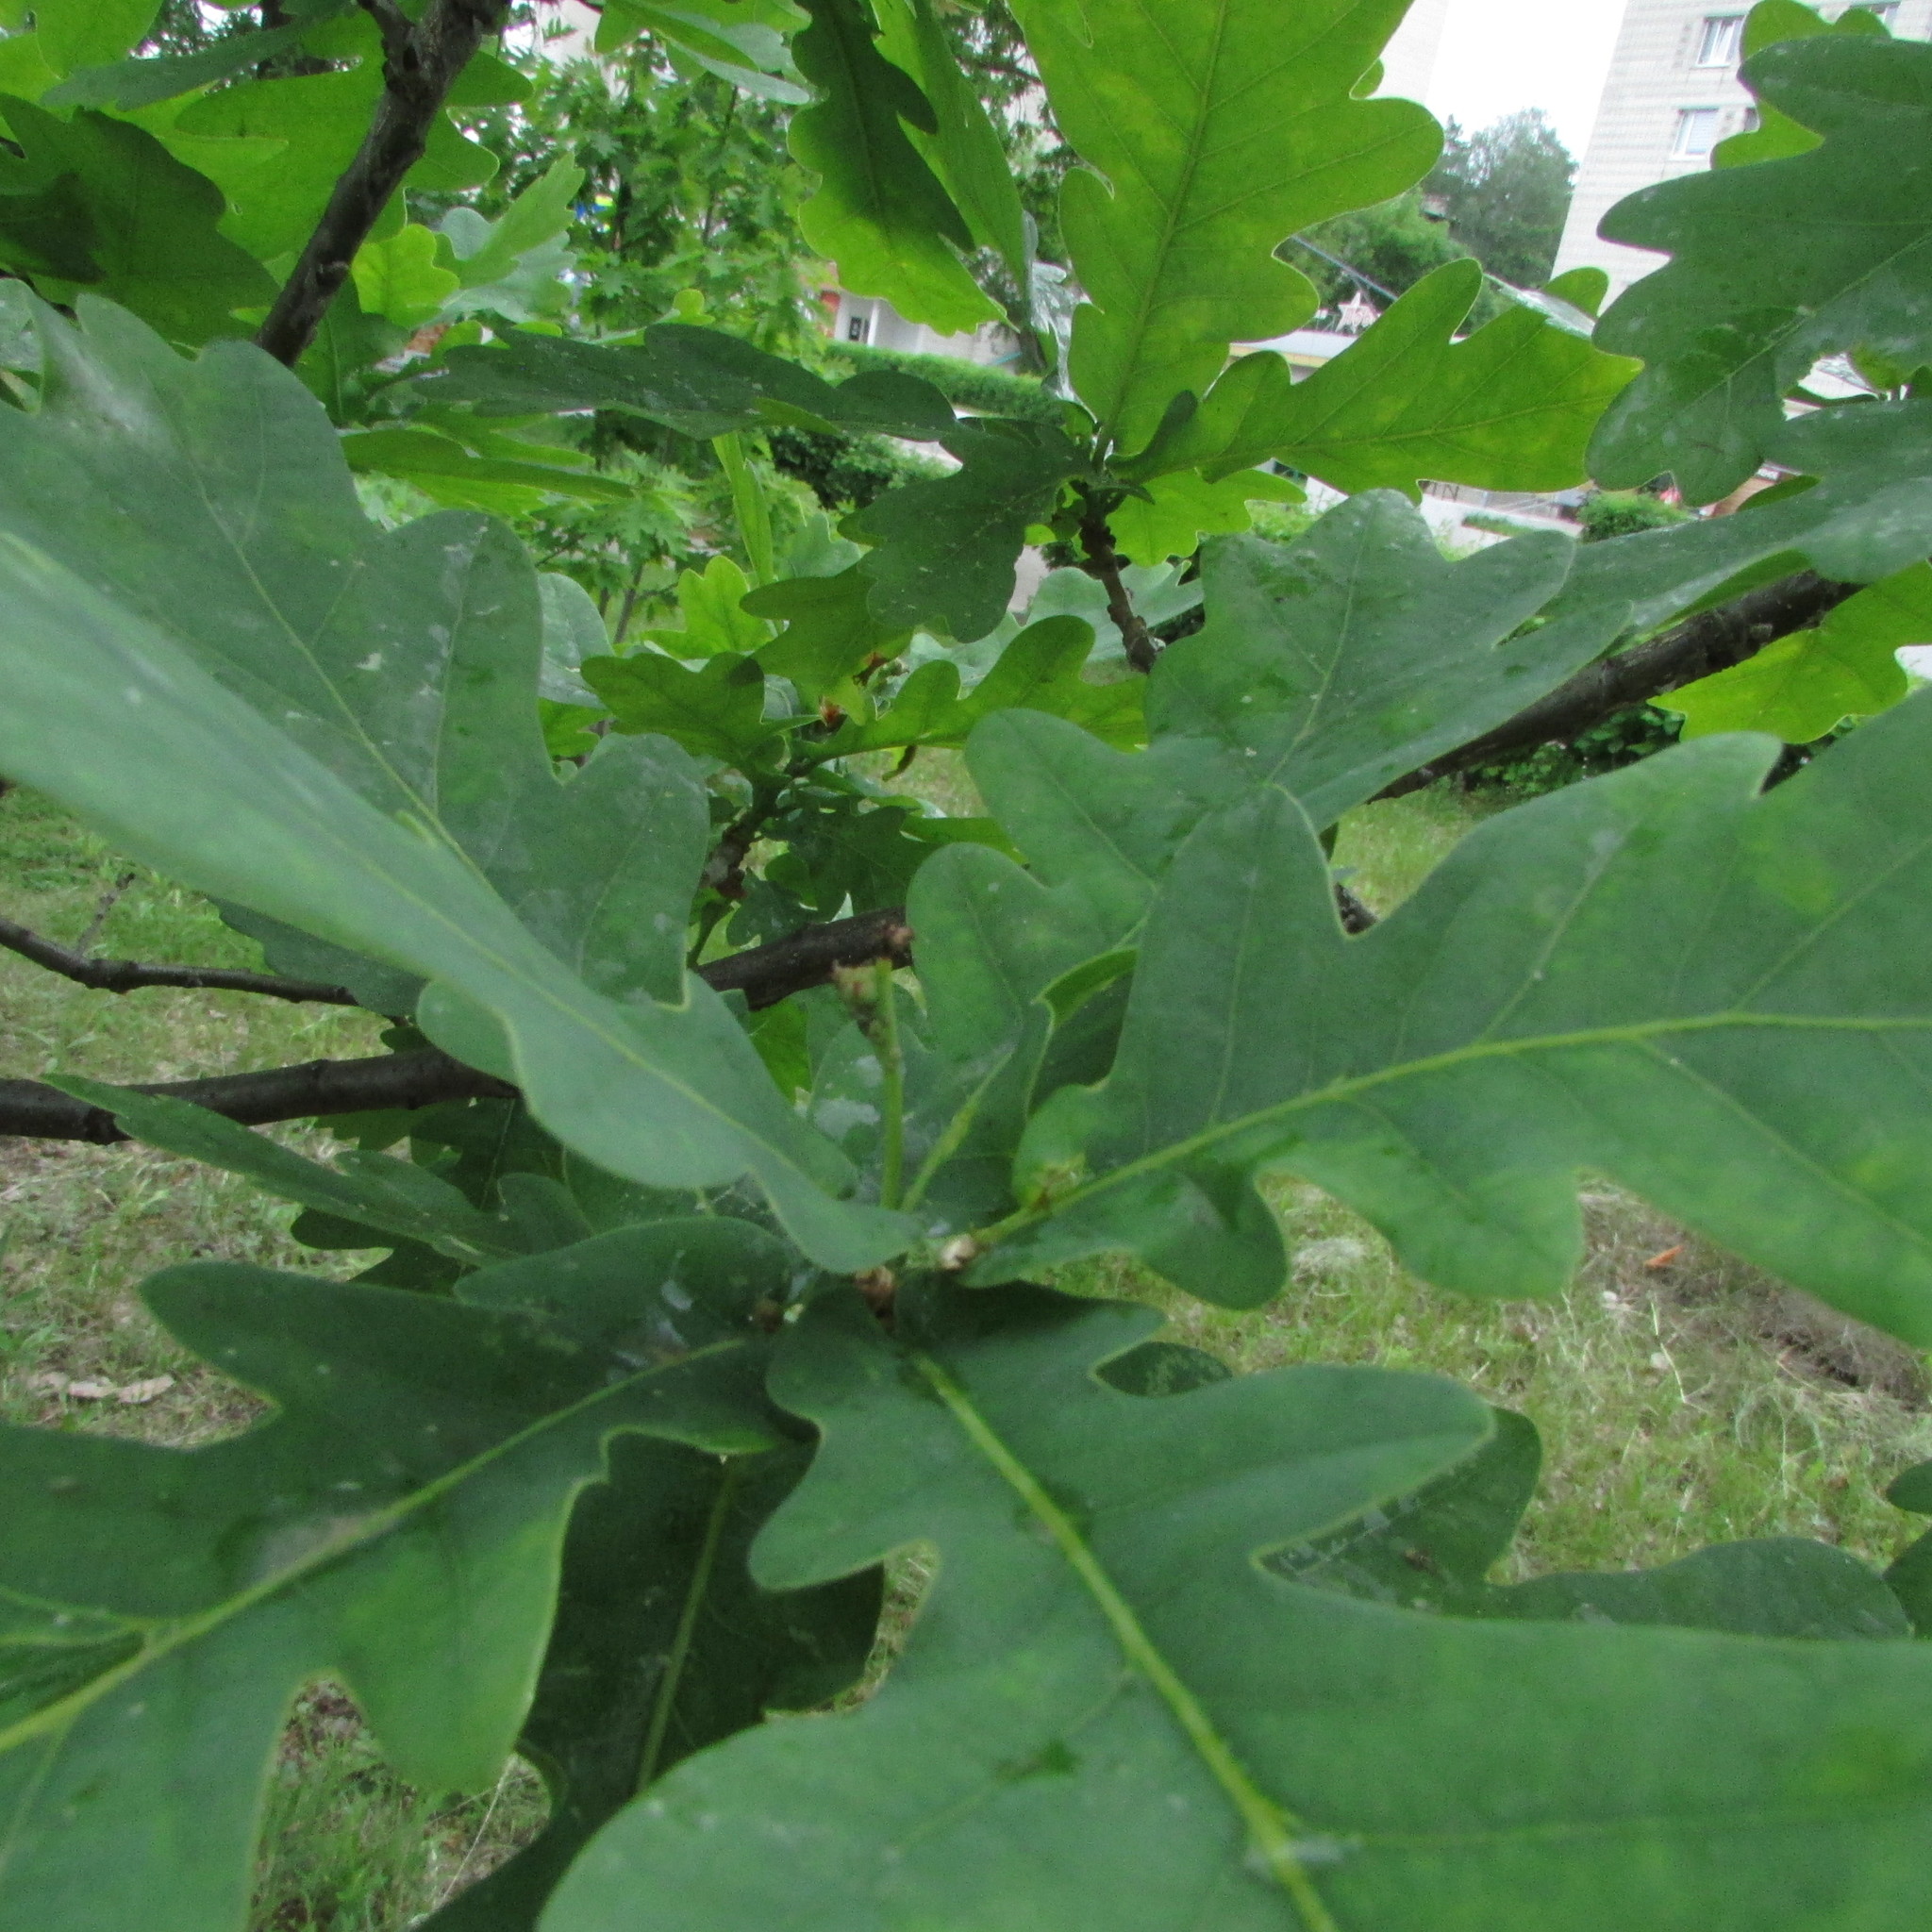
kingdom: Plantae
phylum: Tracheophyta
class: Magnoliopsida
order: Fagales
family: Fagaceae
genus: Quercus
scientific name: Quercus robur
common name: Pedunculate oak
